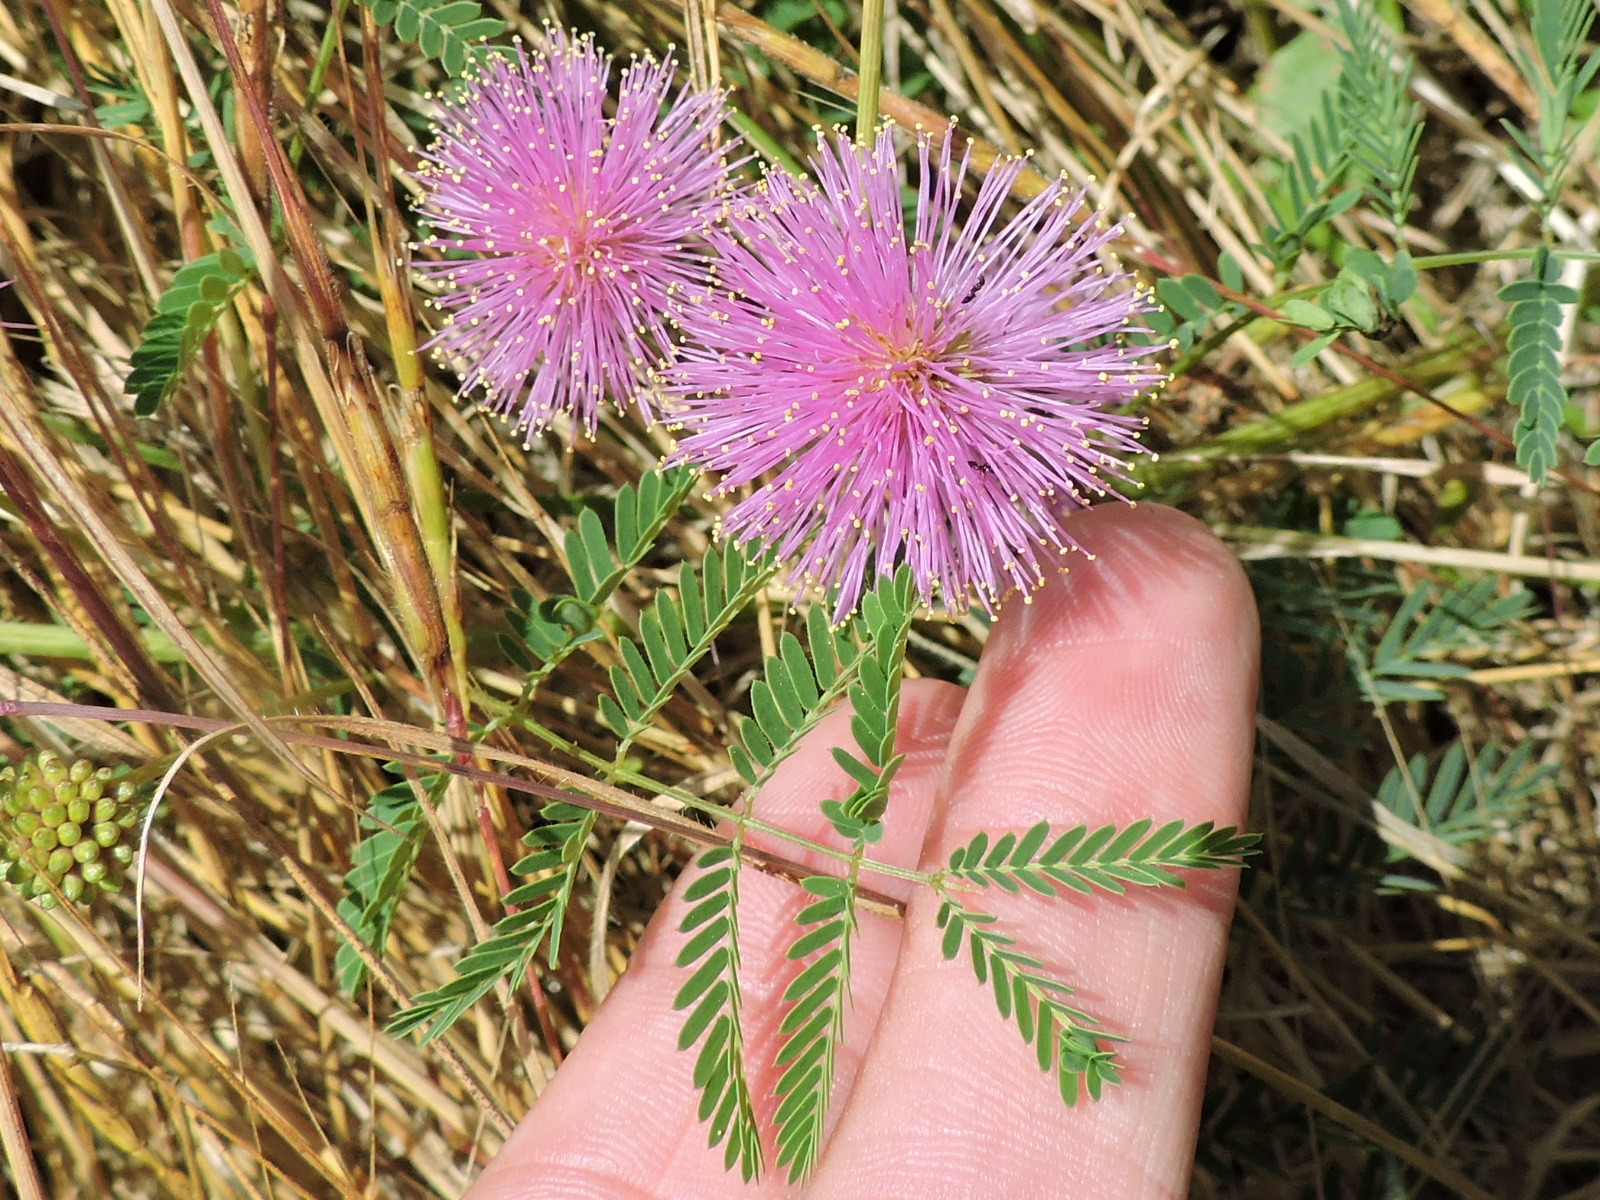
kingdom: Plantae
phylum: Tracheophyta
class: Magnoliopsida
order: Fabales
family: Fabaceae
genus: Mimosa
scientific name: Mimosa quadrivalvis
